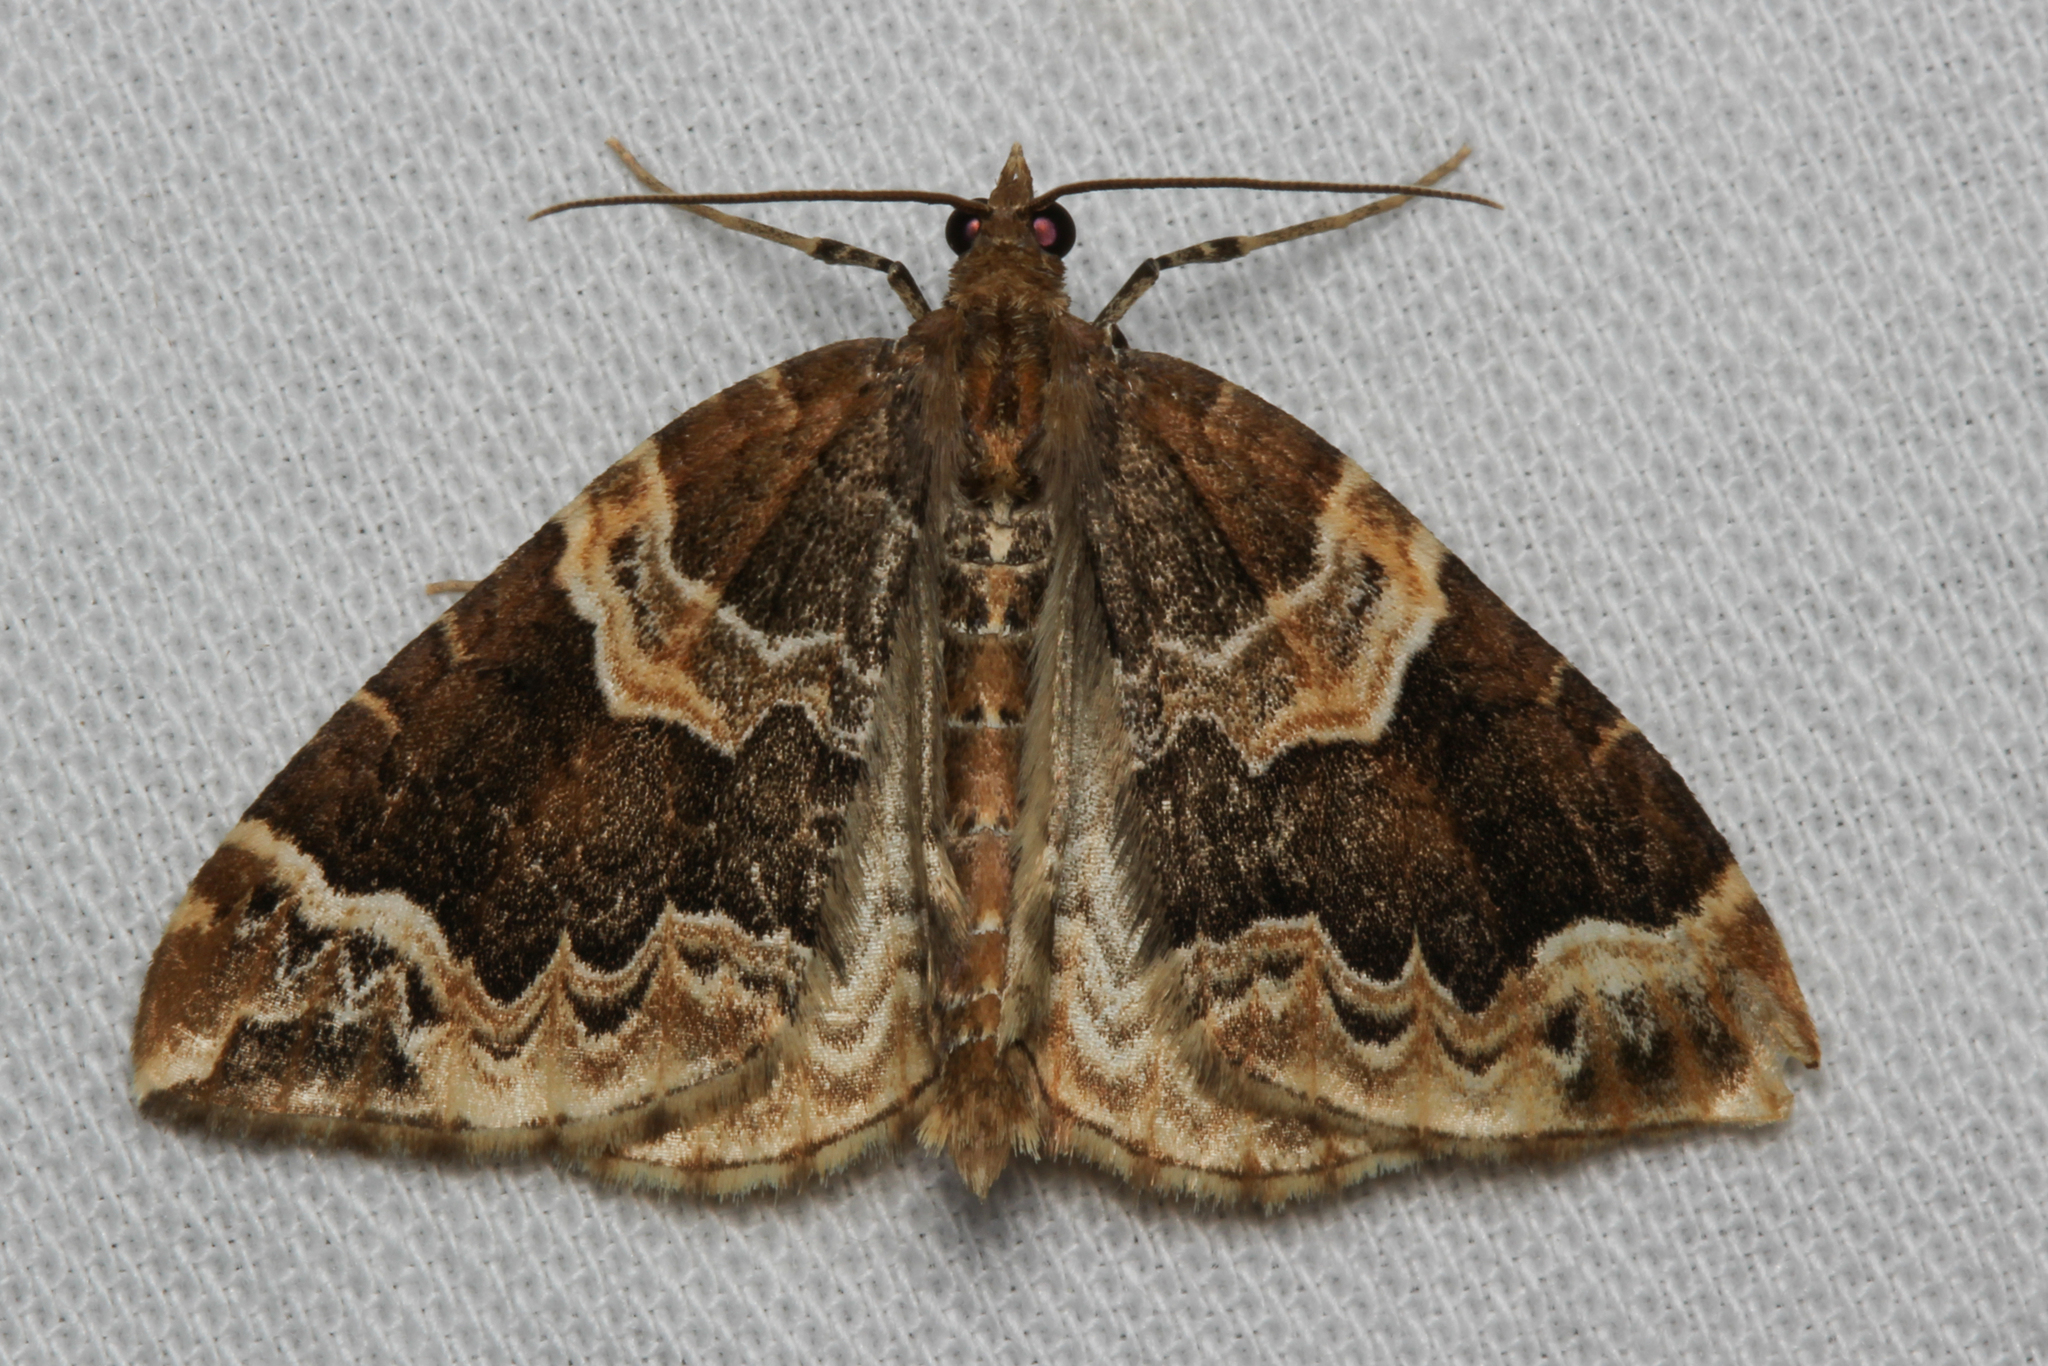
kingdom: Animalia
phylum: Arthropoda
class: Insecta
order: Lepidoptera
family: Geometridae
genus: Eulithis
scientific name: Eulithis prunata
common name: Phoenix
